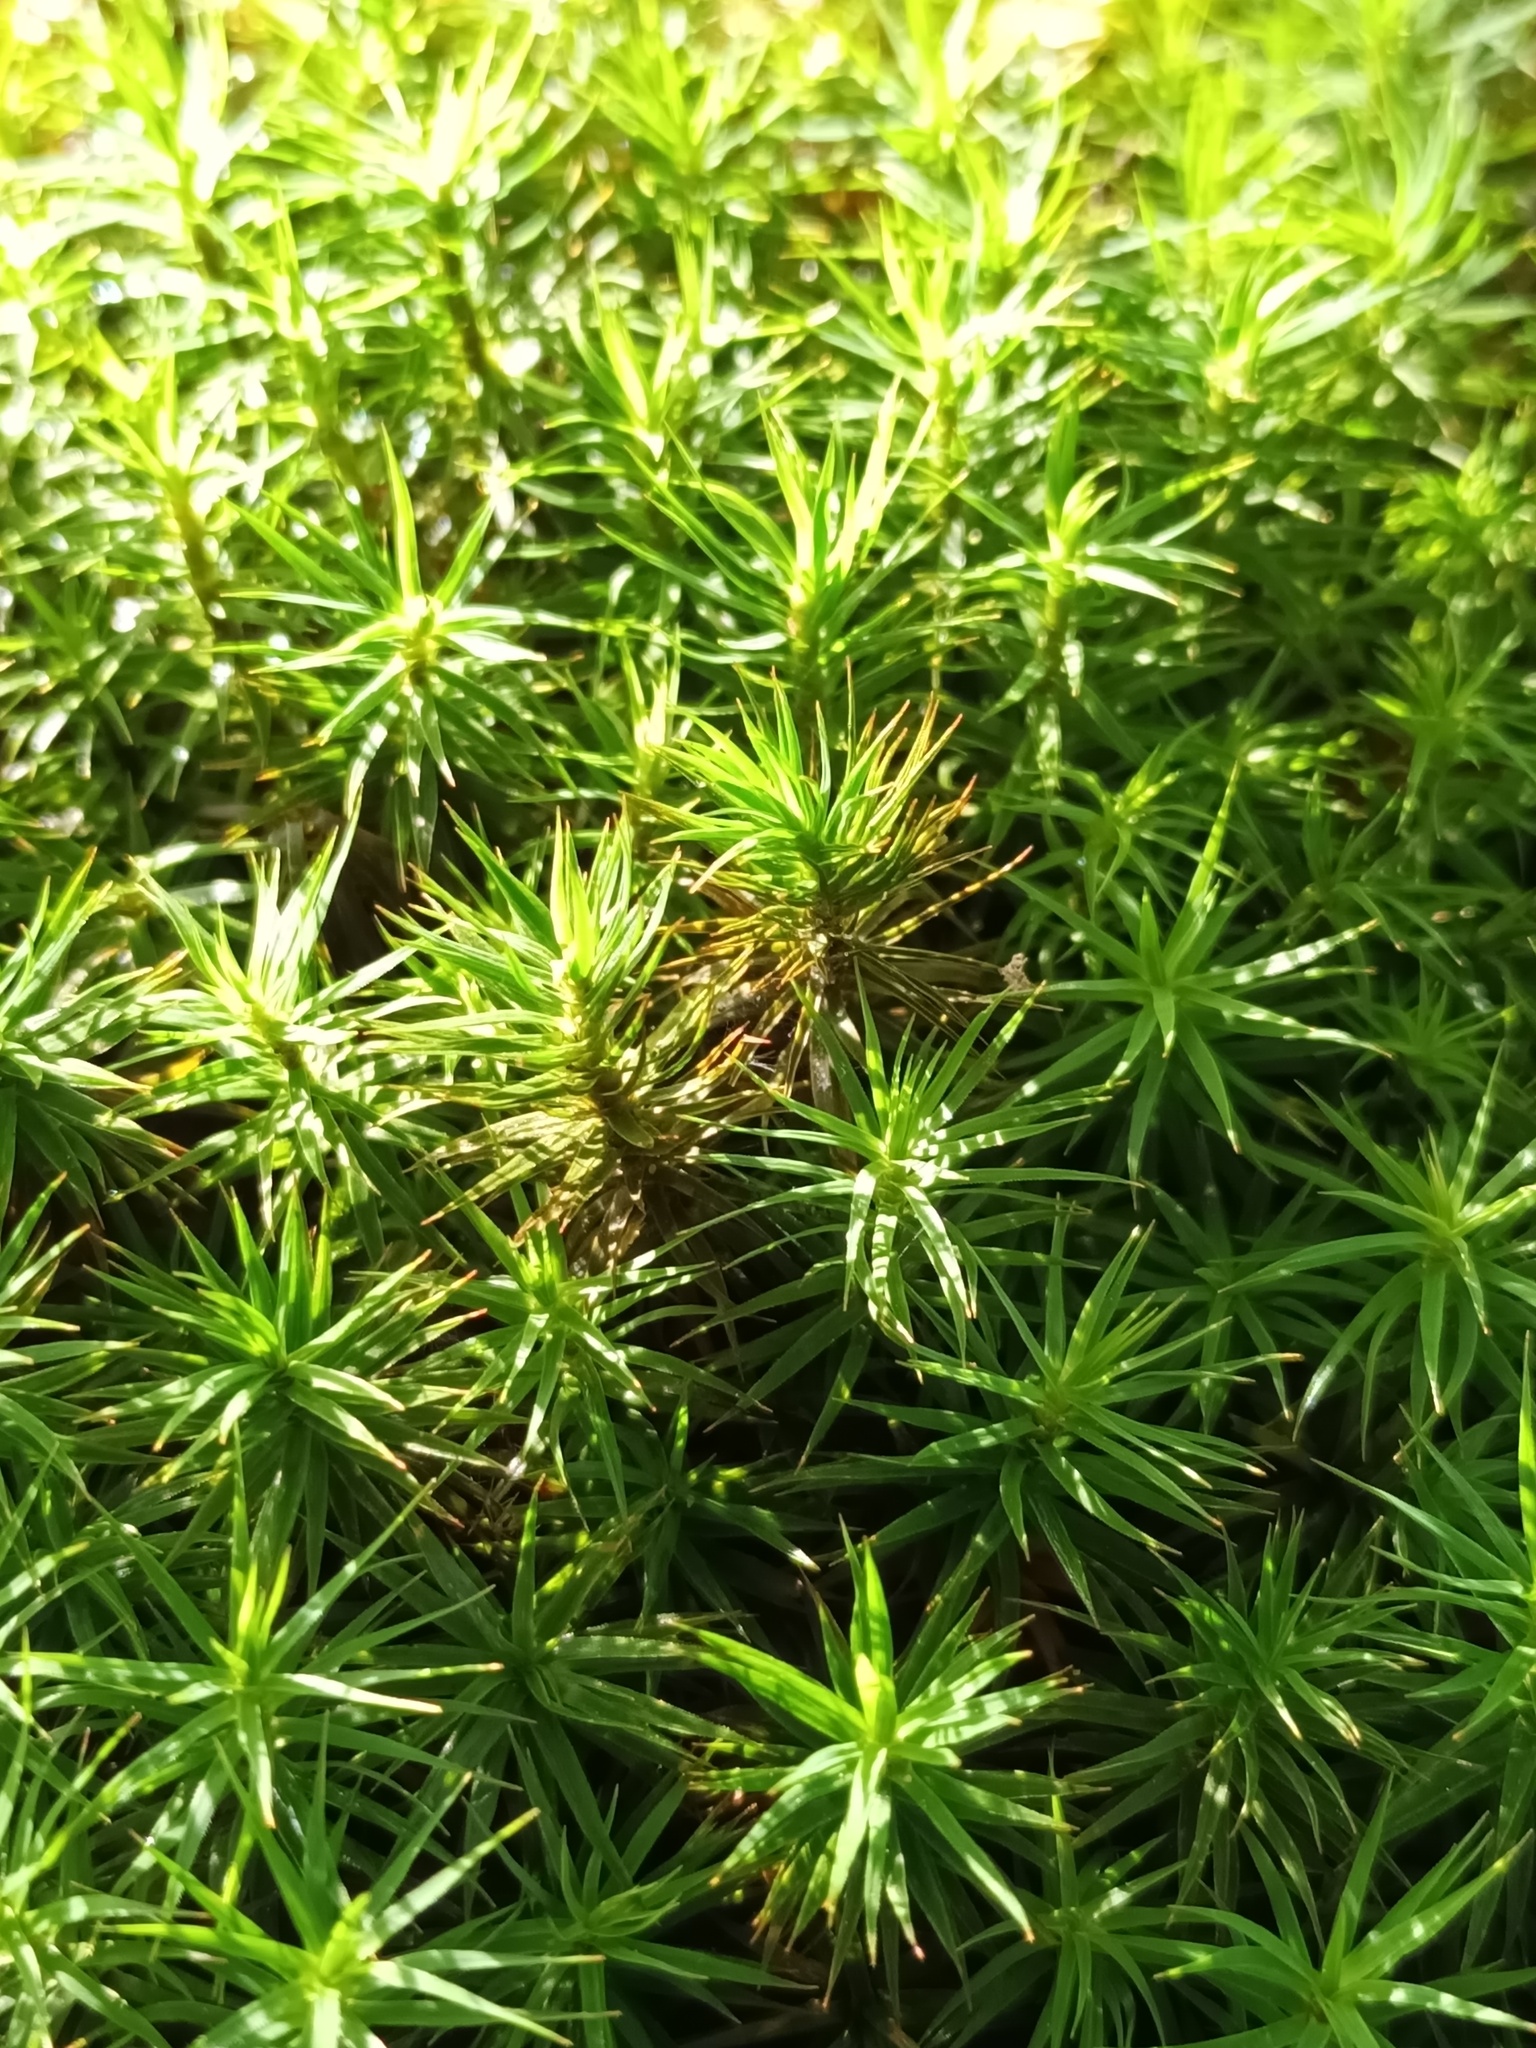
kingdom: Plantae
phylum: Bryophyta
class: Polytrichopsida
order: Polytrichales
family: Polytrichaceae
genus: Polytrichum
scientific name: Polytrichum formosum
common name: Bank haircap moss
